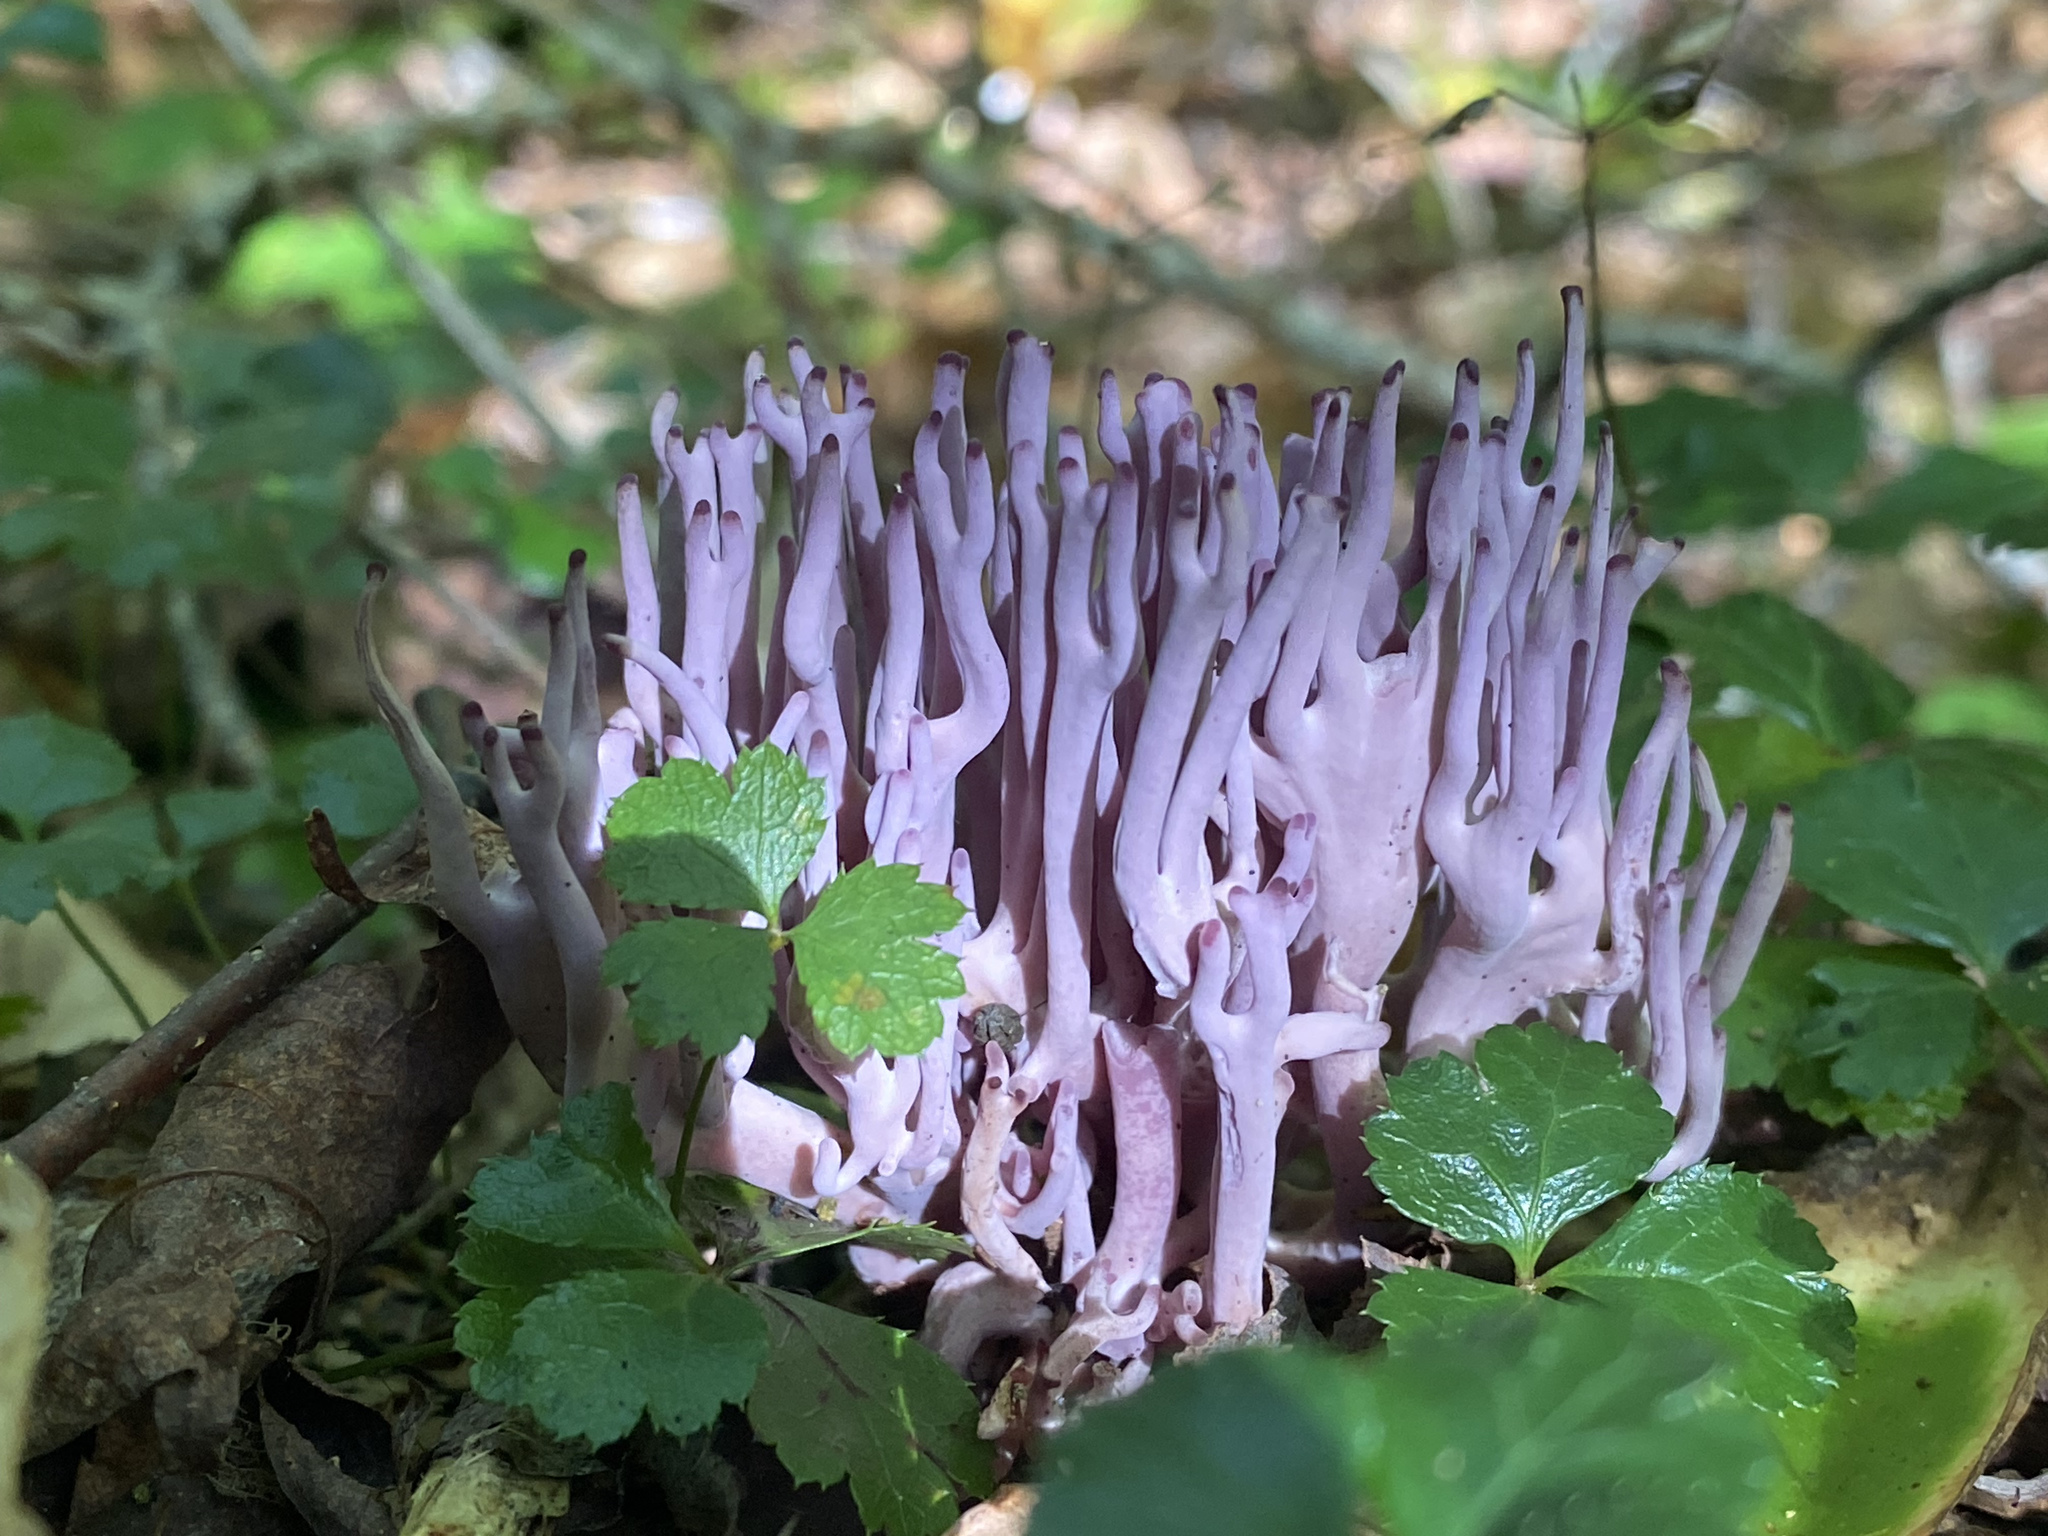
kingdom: Fungi
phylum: Basidiomycota
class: Agaricomycetes
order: Agaricales
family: Clavariaceae
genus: Clavaria
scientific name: Clavaria zollingeri
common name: Violet coral
